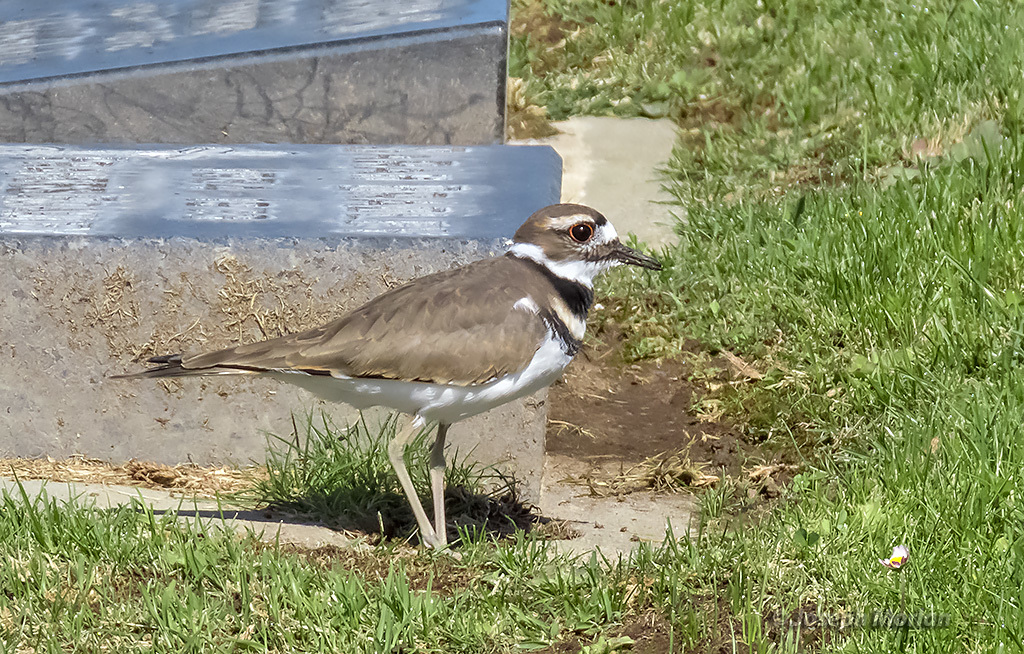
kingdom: Animalia
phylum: Chordata
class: Aves
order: Charadriiformes
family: Charadriidae
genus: Charadrius
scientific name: Charadrius vociferus
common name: Killdeer
